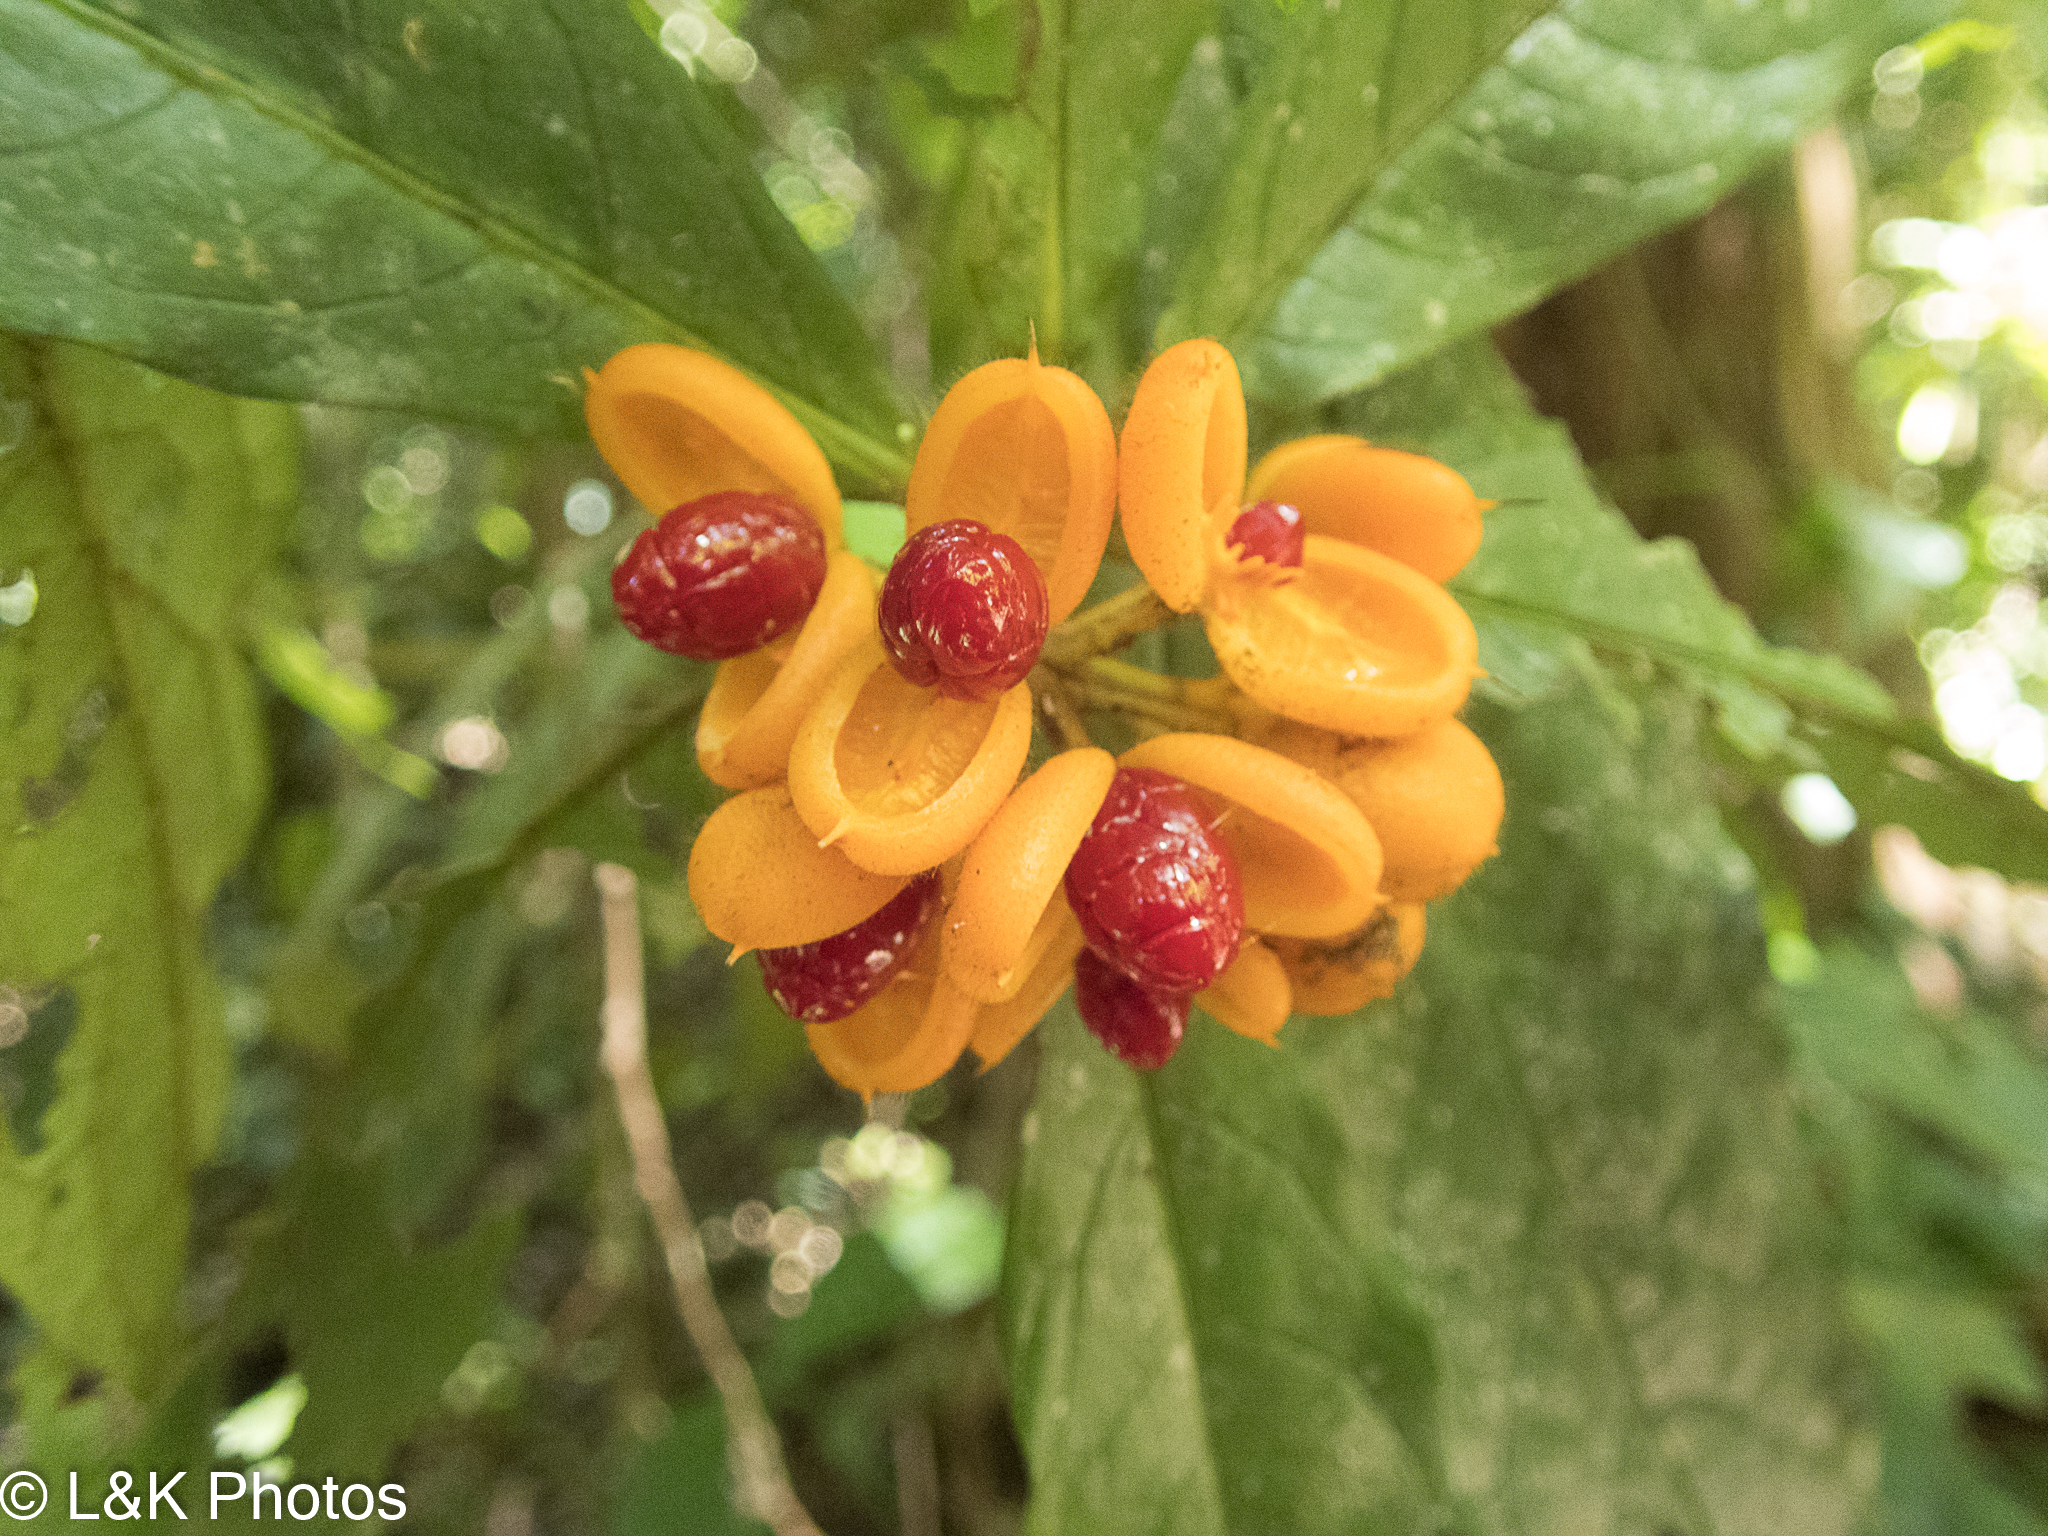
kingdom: Plantae
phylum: Tracheophyta
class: Magnoliopsida
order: Apiales
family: Pittosporaceae
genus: Pittosporum
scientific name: Pittosporum rubiginosum
